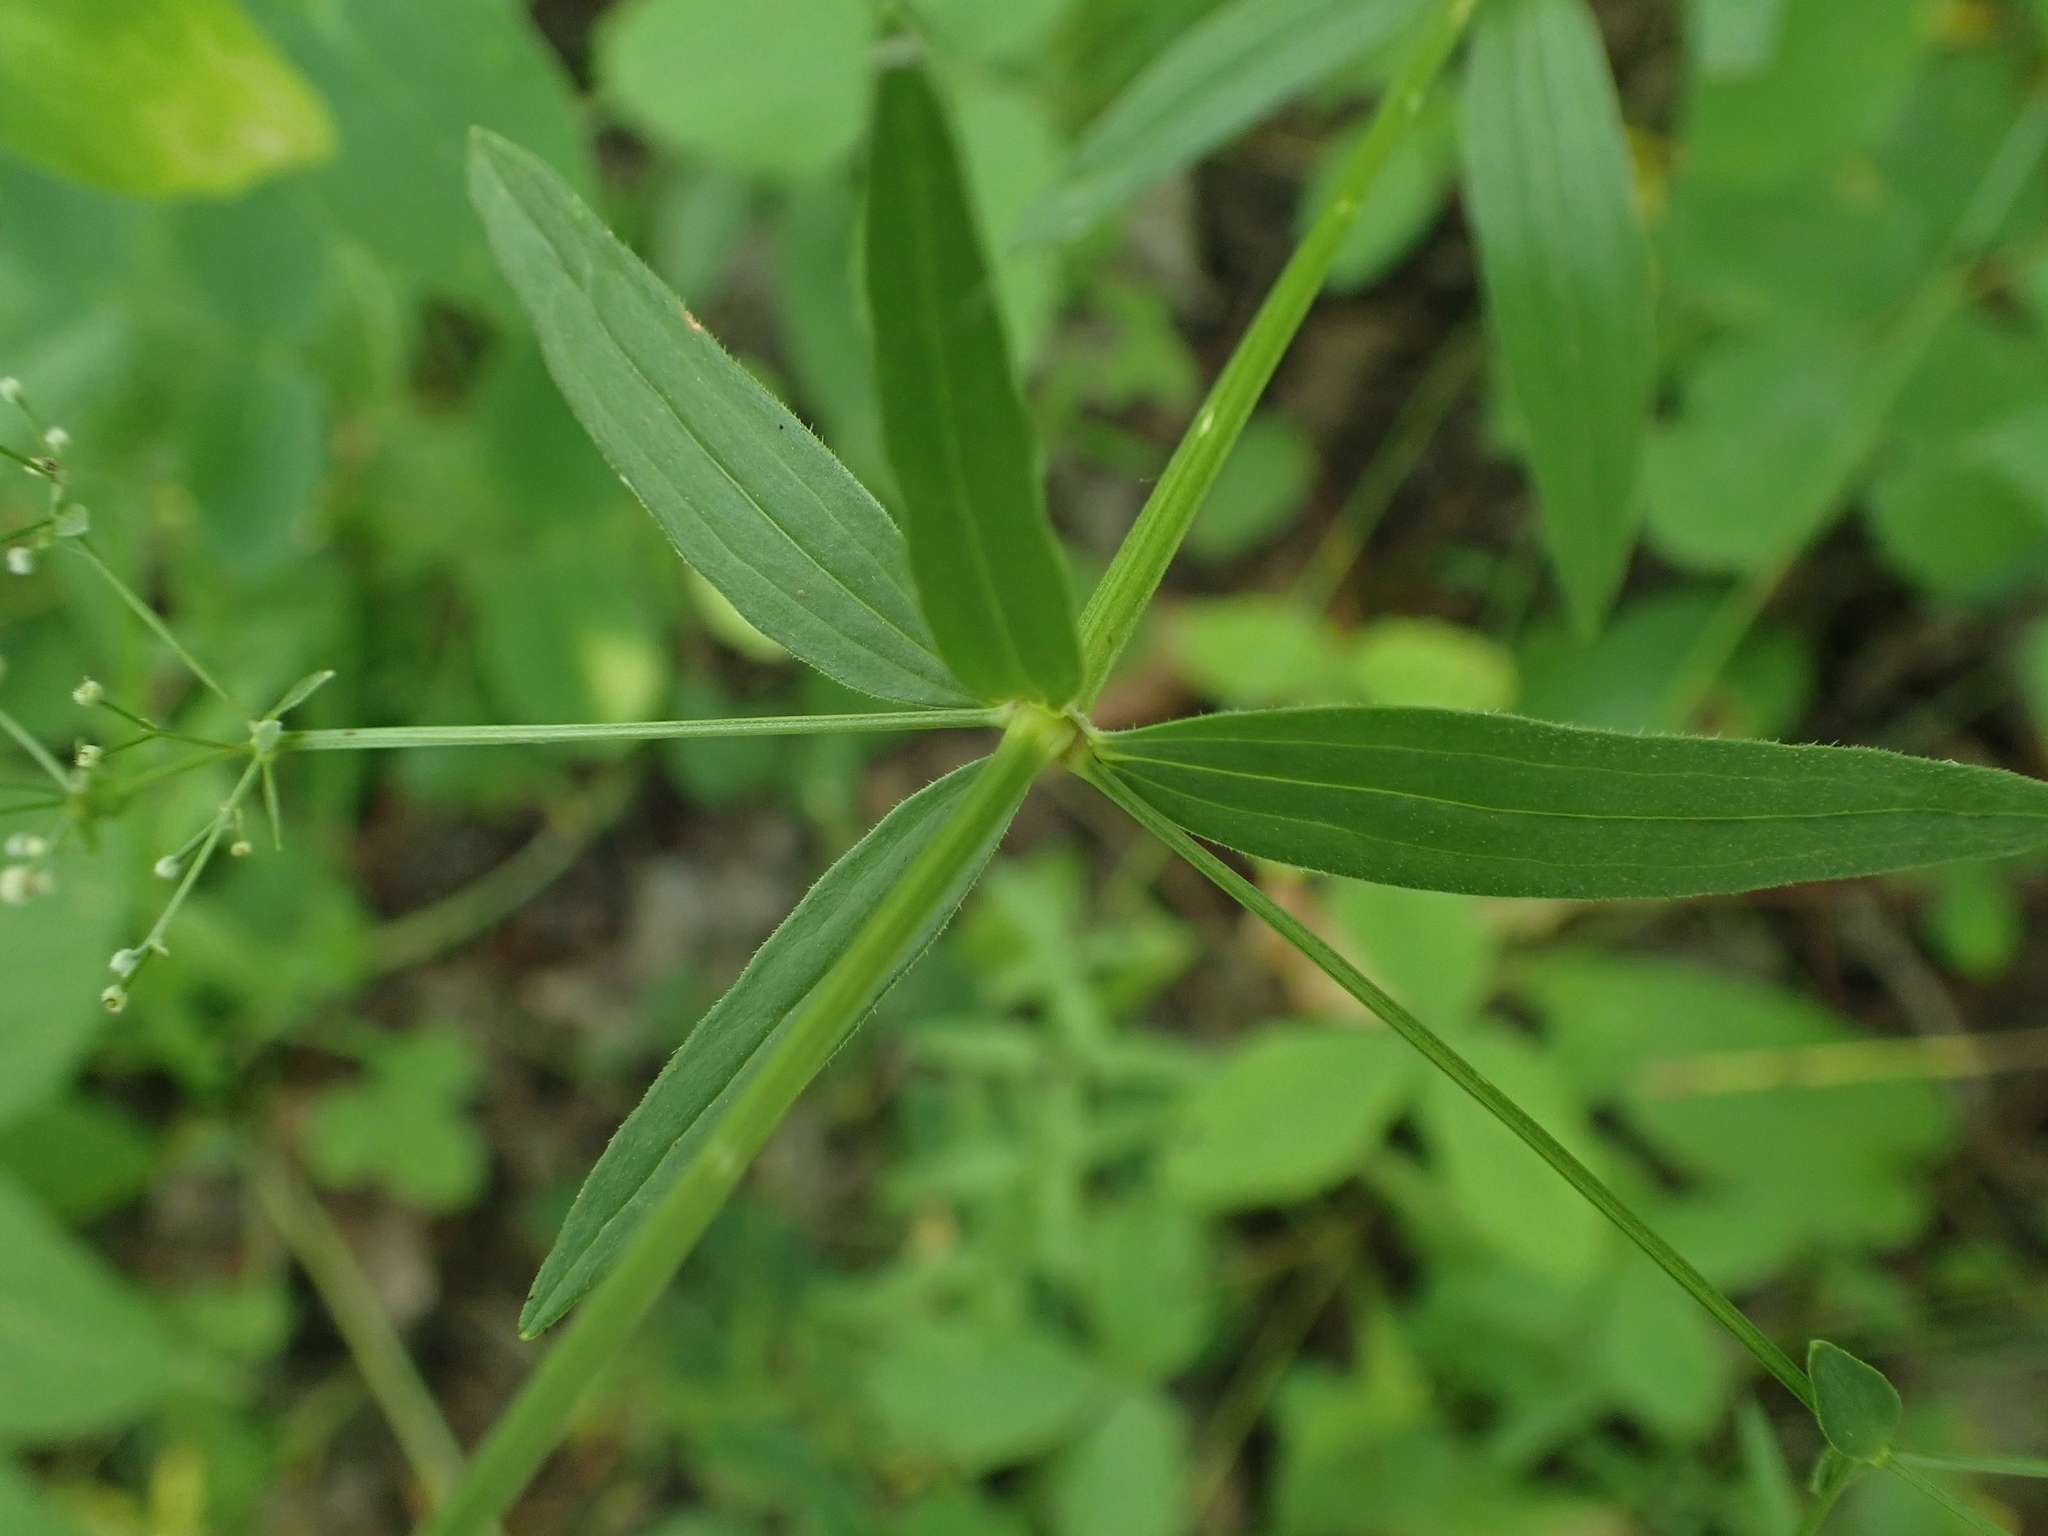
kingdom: Plantae
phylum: Tracheophyta
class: Magnoliopsida
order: Gentianales
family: Rubiaceae
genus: Galium
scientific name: Galium boreale
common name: Northern bedstraw
